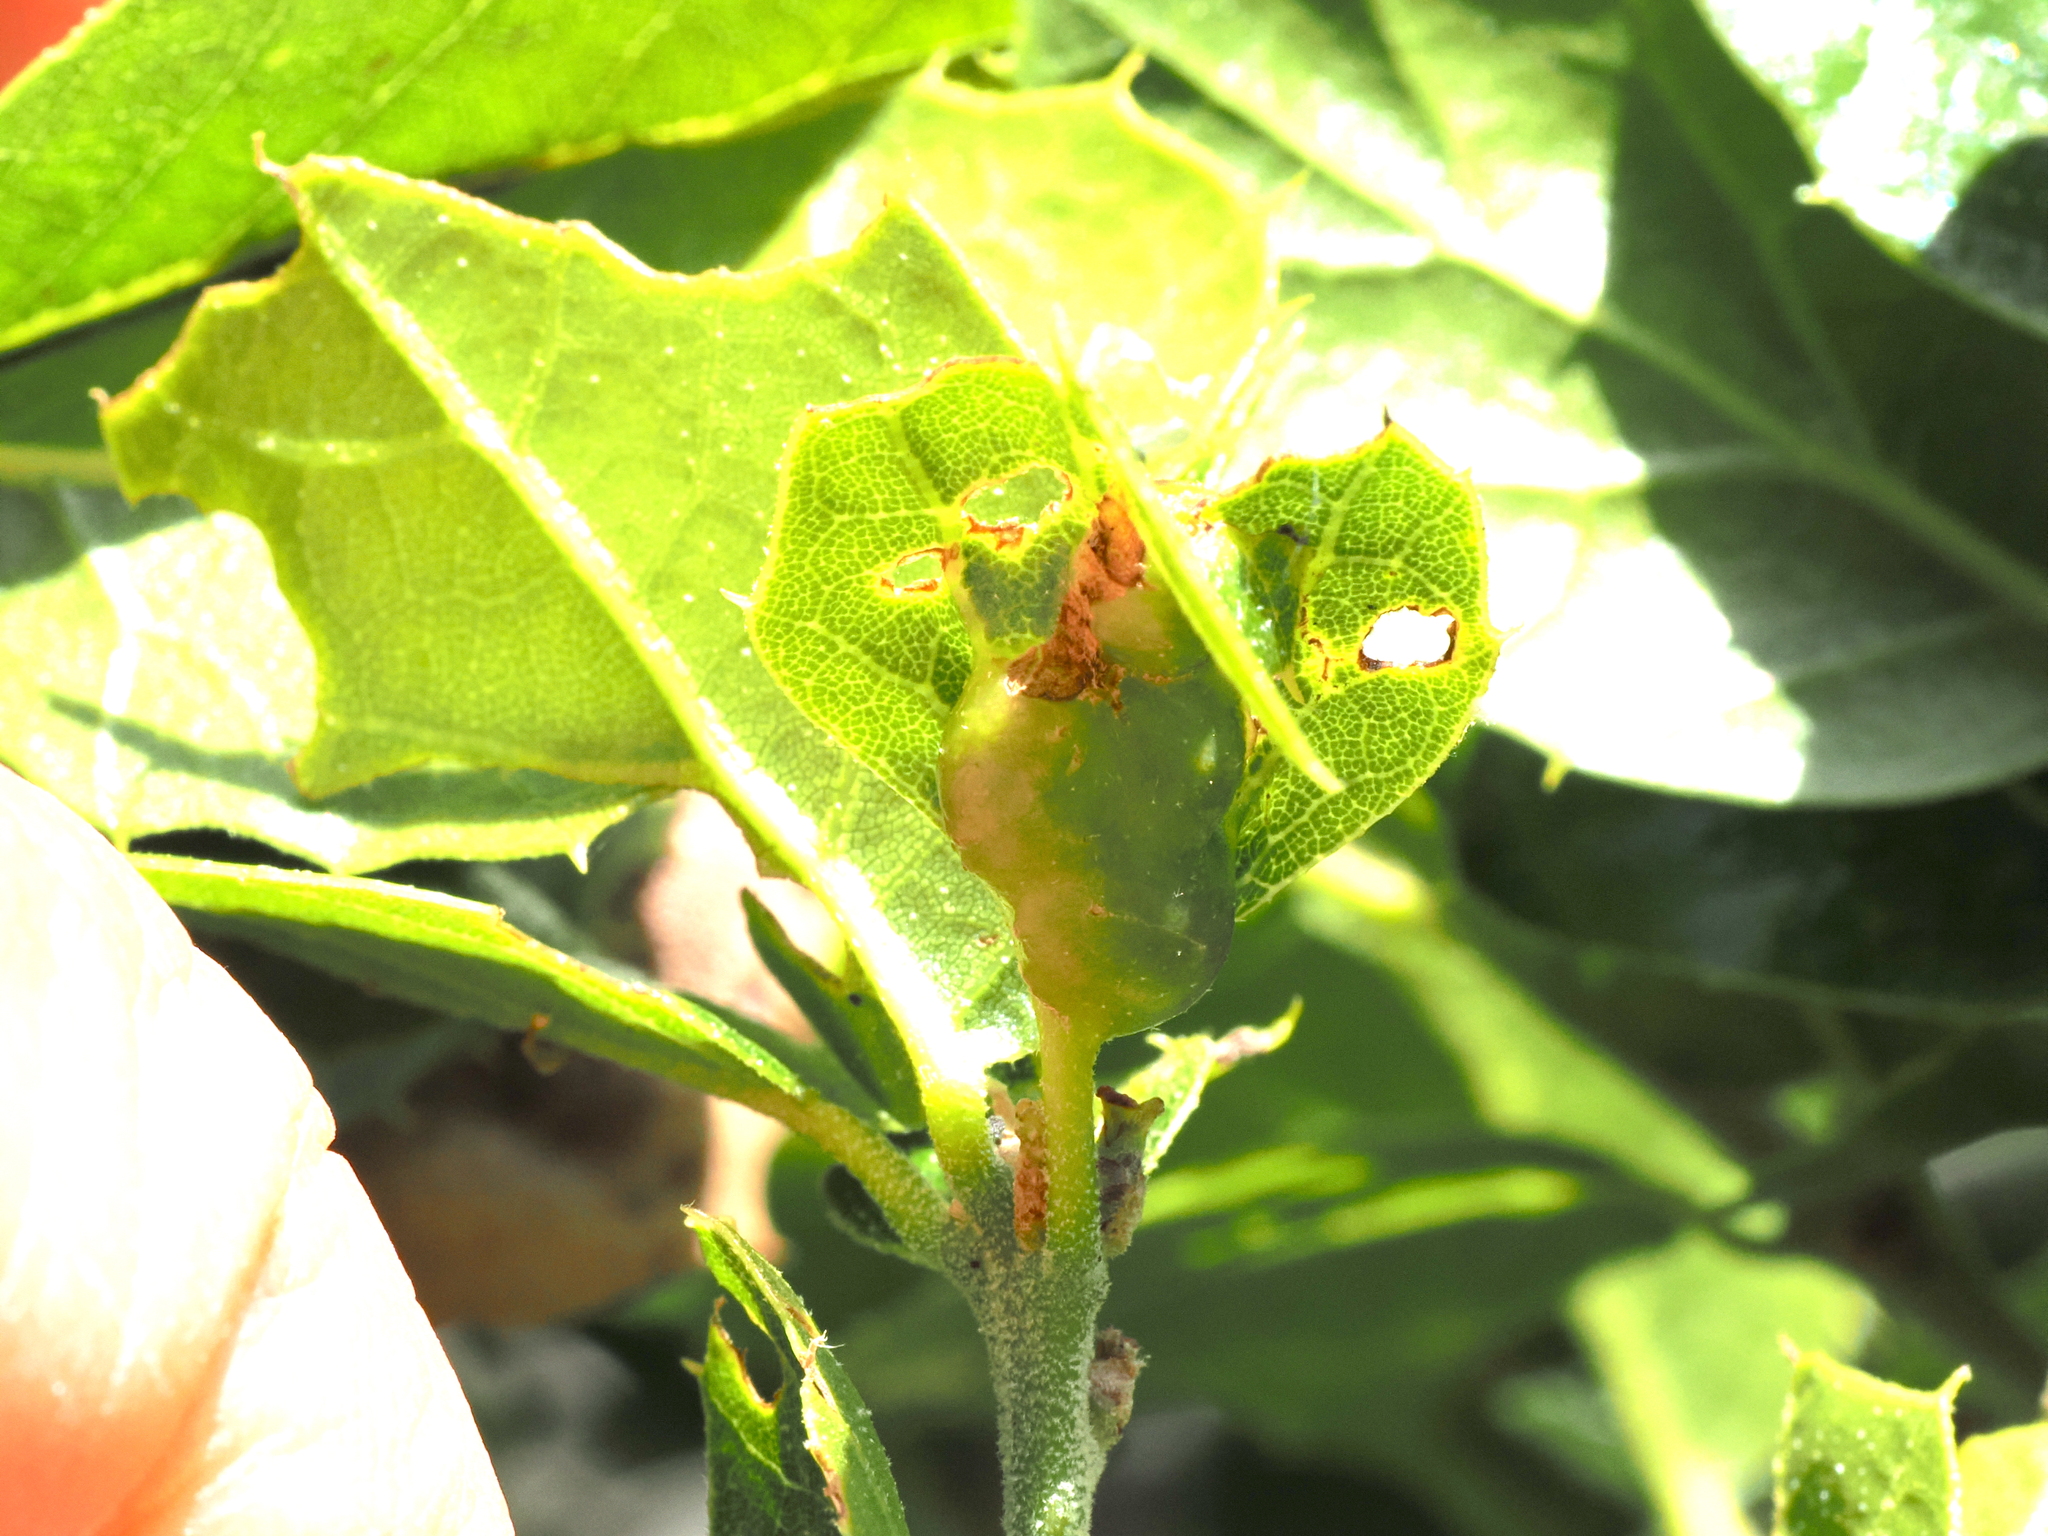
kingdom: Animalia
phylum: Arthropoda
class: Insecta
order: Hymenoptera
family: Cynipidae
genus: Melikaiella
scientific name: Melikaiella
